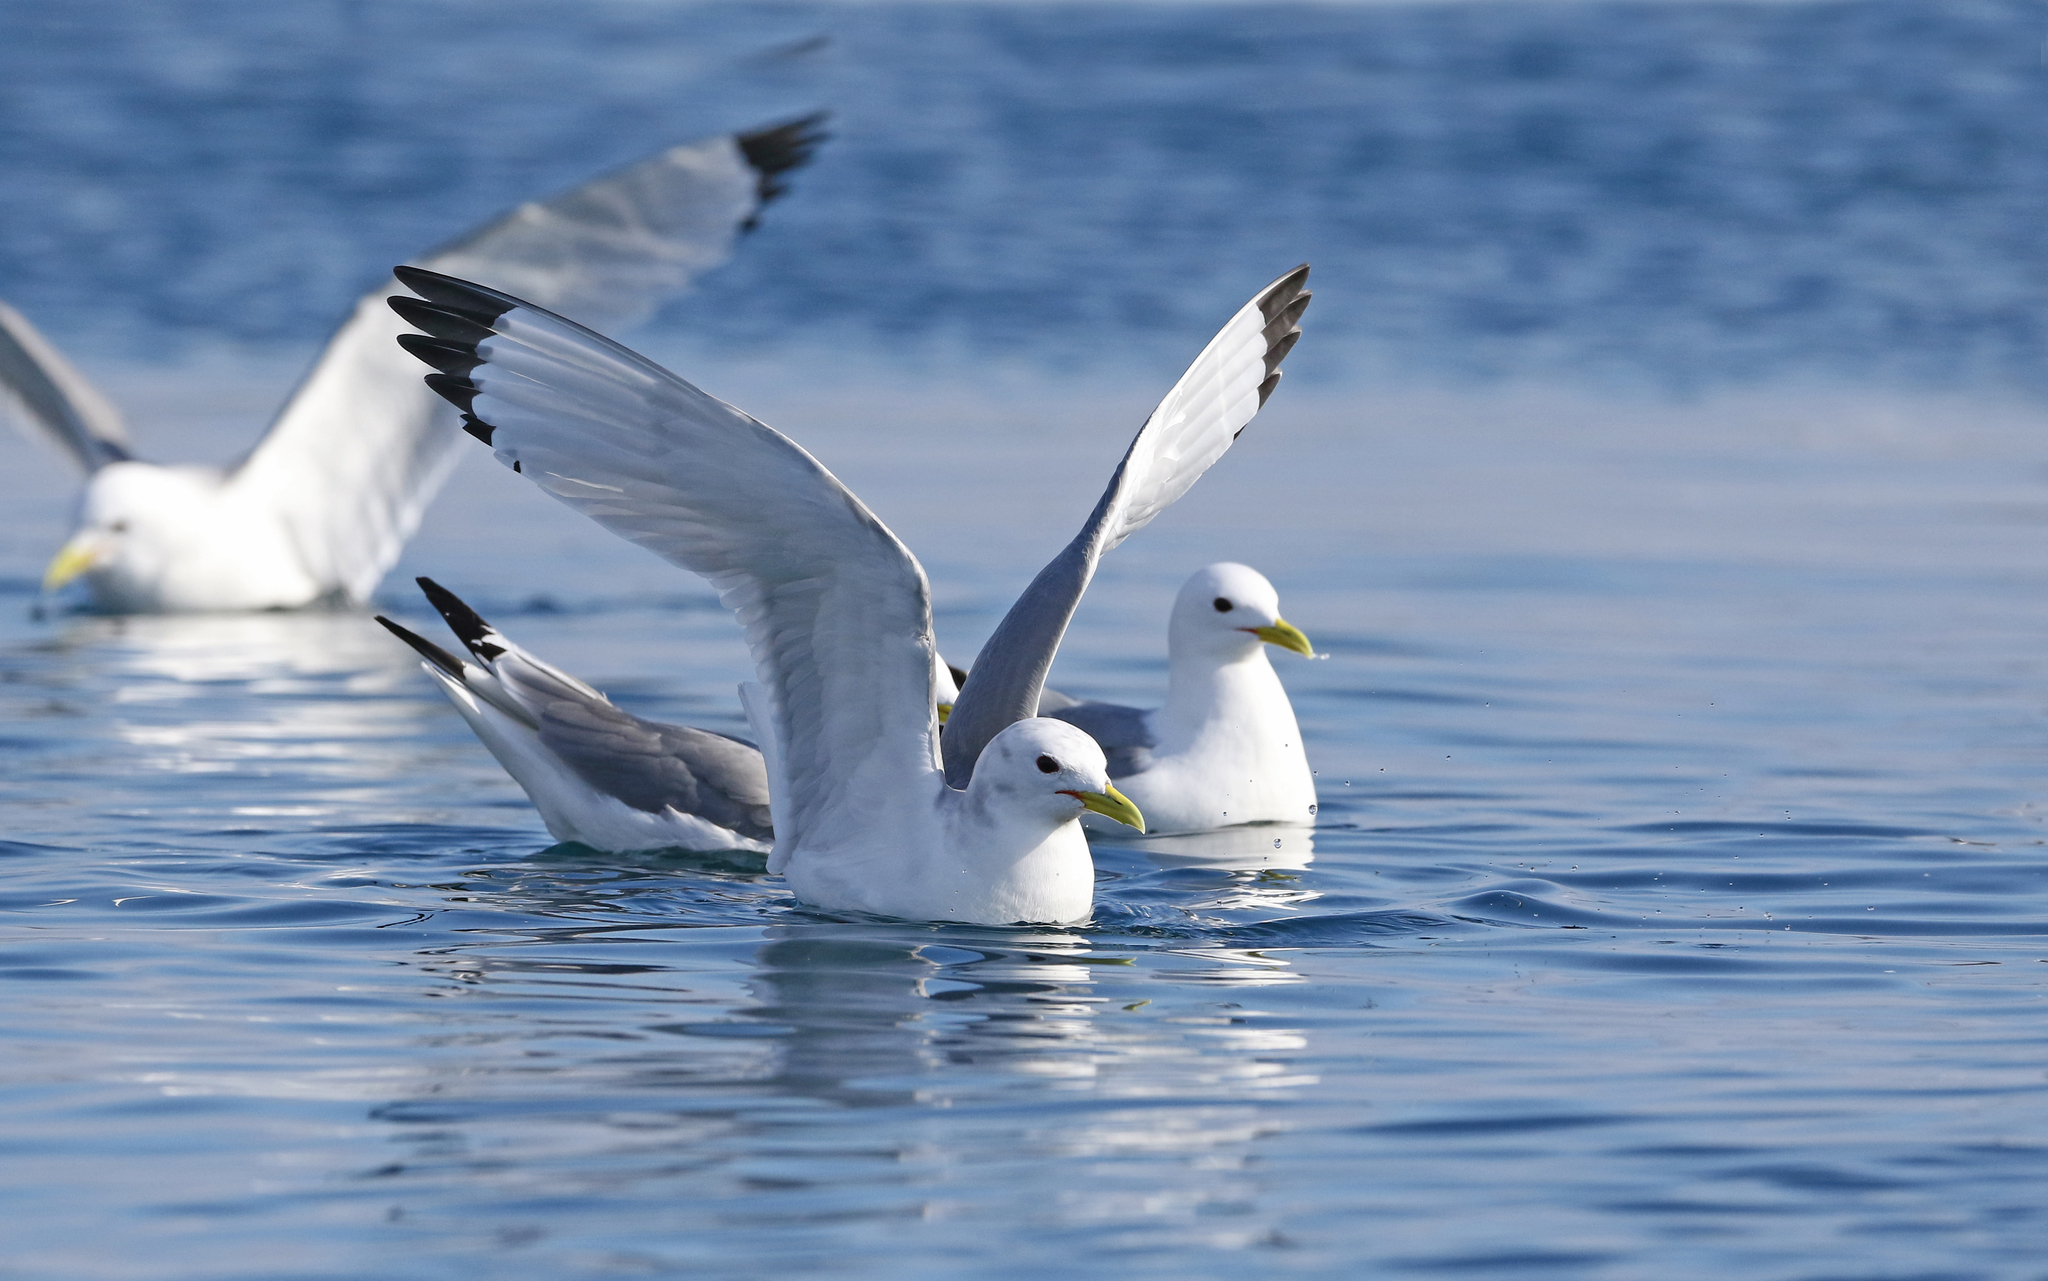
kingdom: Animalia
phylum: Chordata
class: Aves
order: Charadriiformes
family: Laridae
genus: Rissa
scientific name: Rissa tridactyla
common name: Black-legged kittiwake
